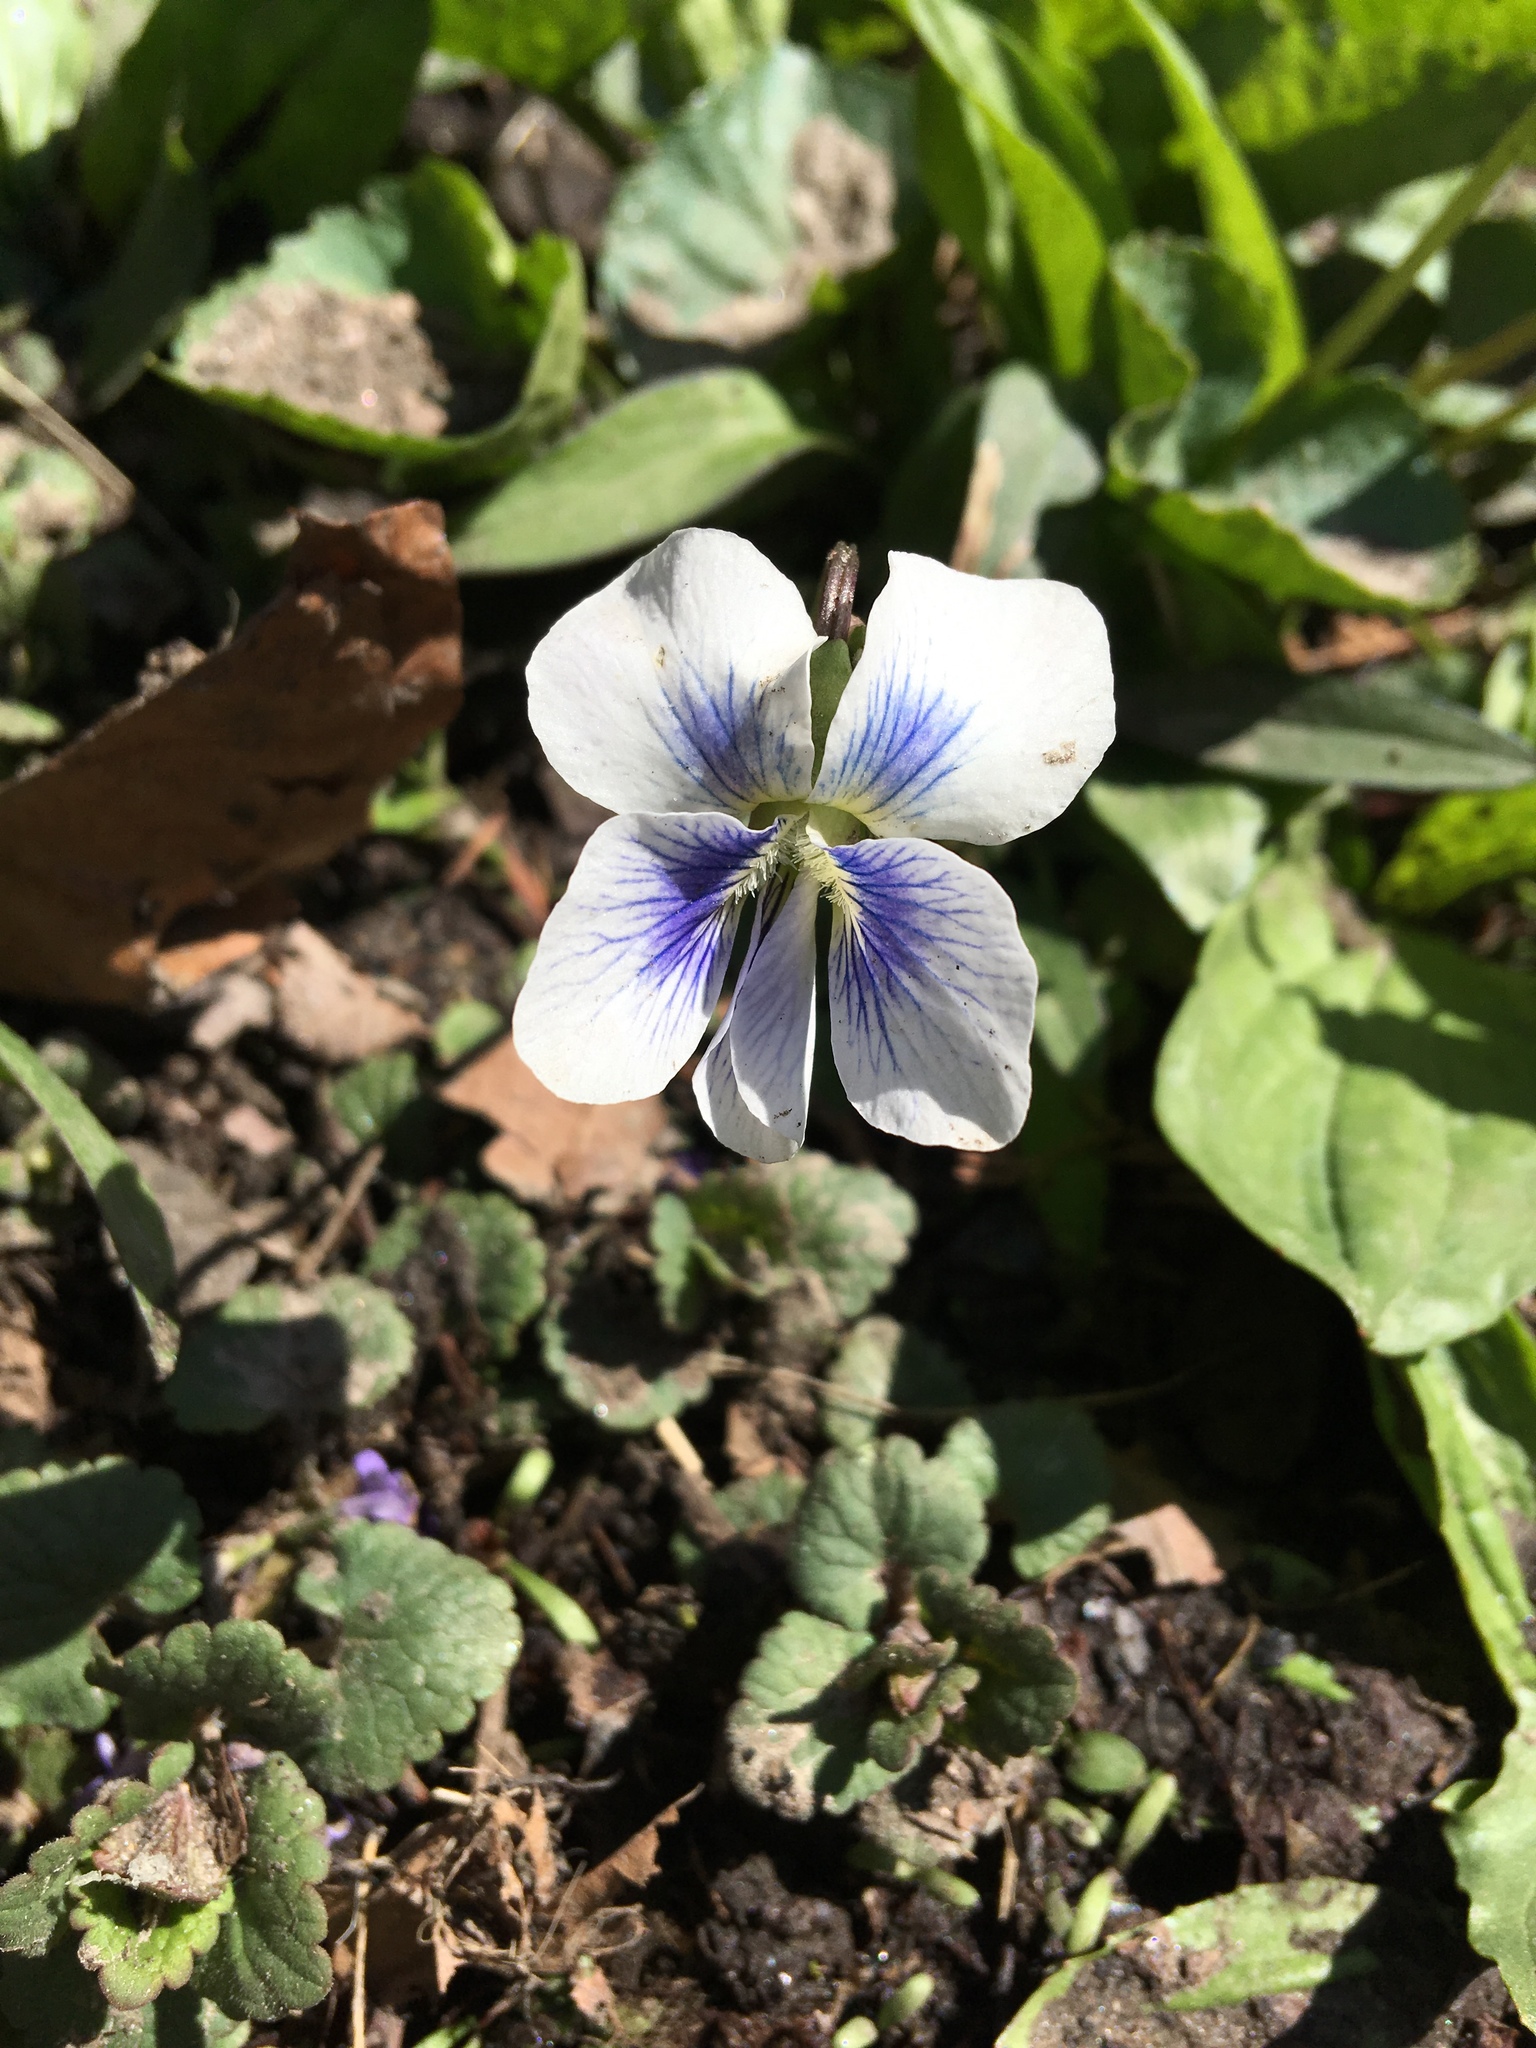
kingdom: Plantae
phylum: Tracheophyta
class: Magnoliopsida
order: Malpighiales
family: Violaceae
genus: Viola
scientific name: Viola sororia
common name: Dooryard violet
